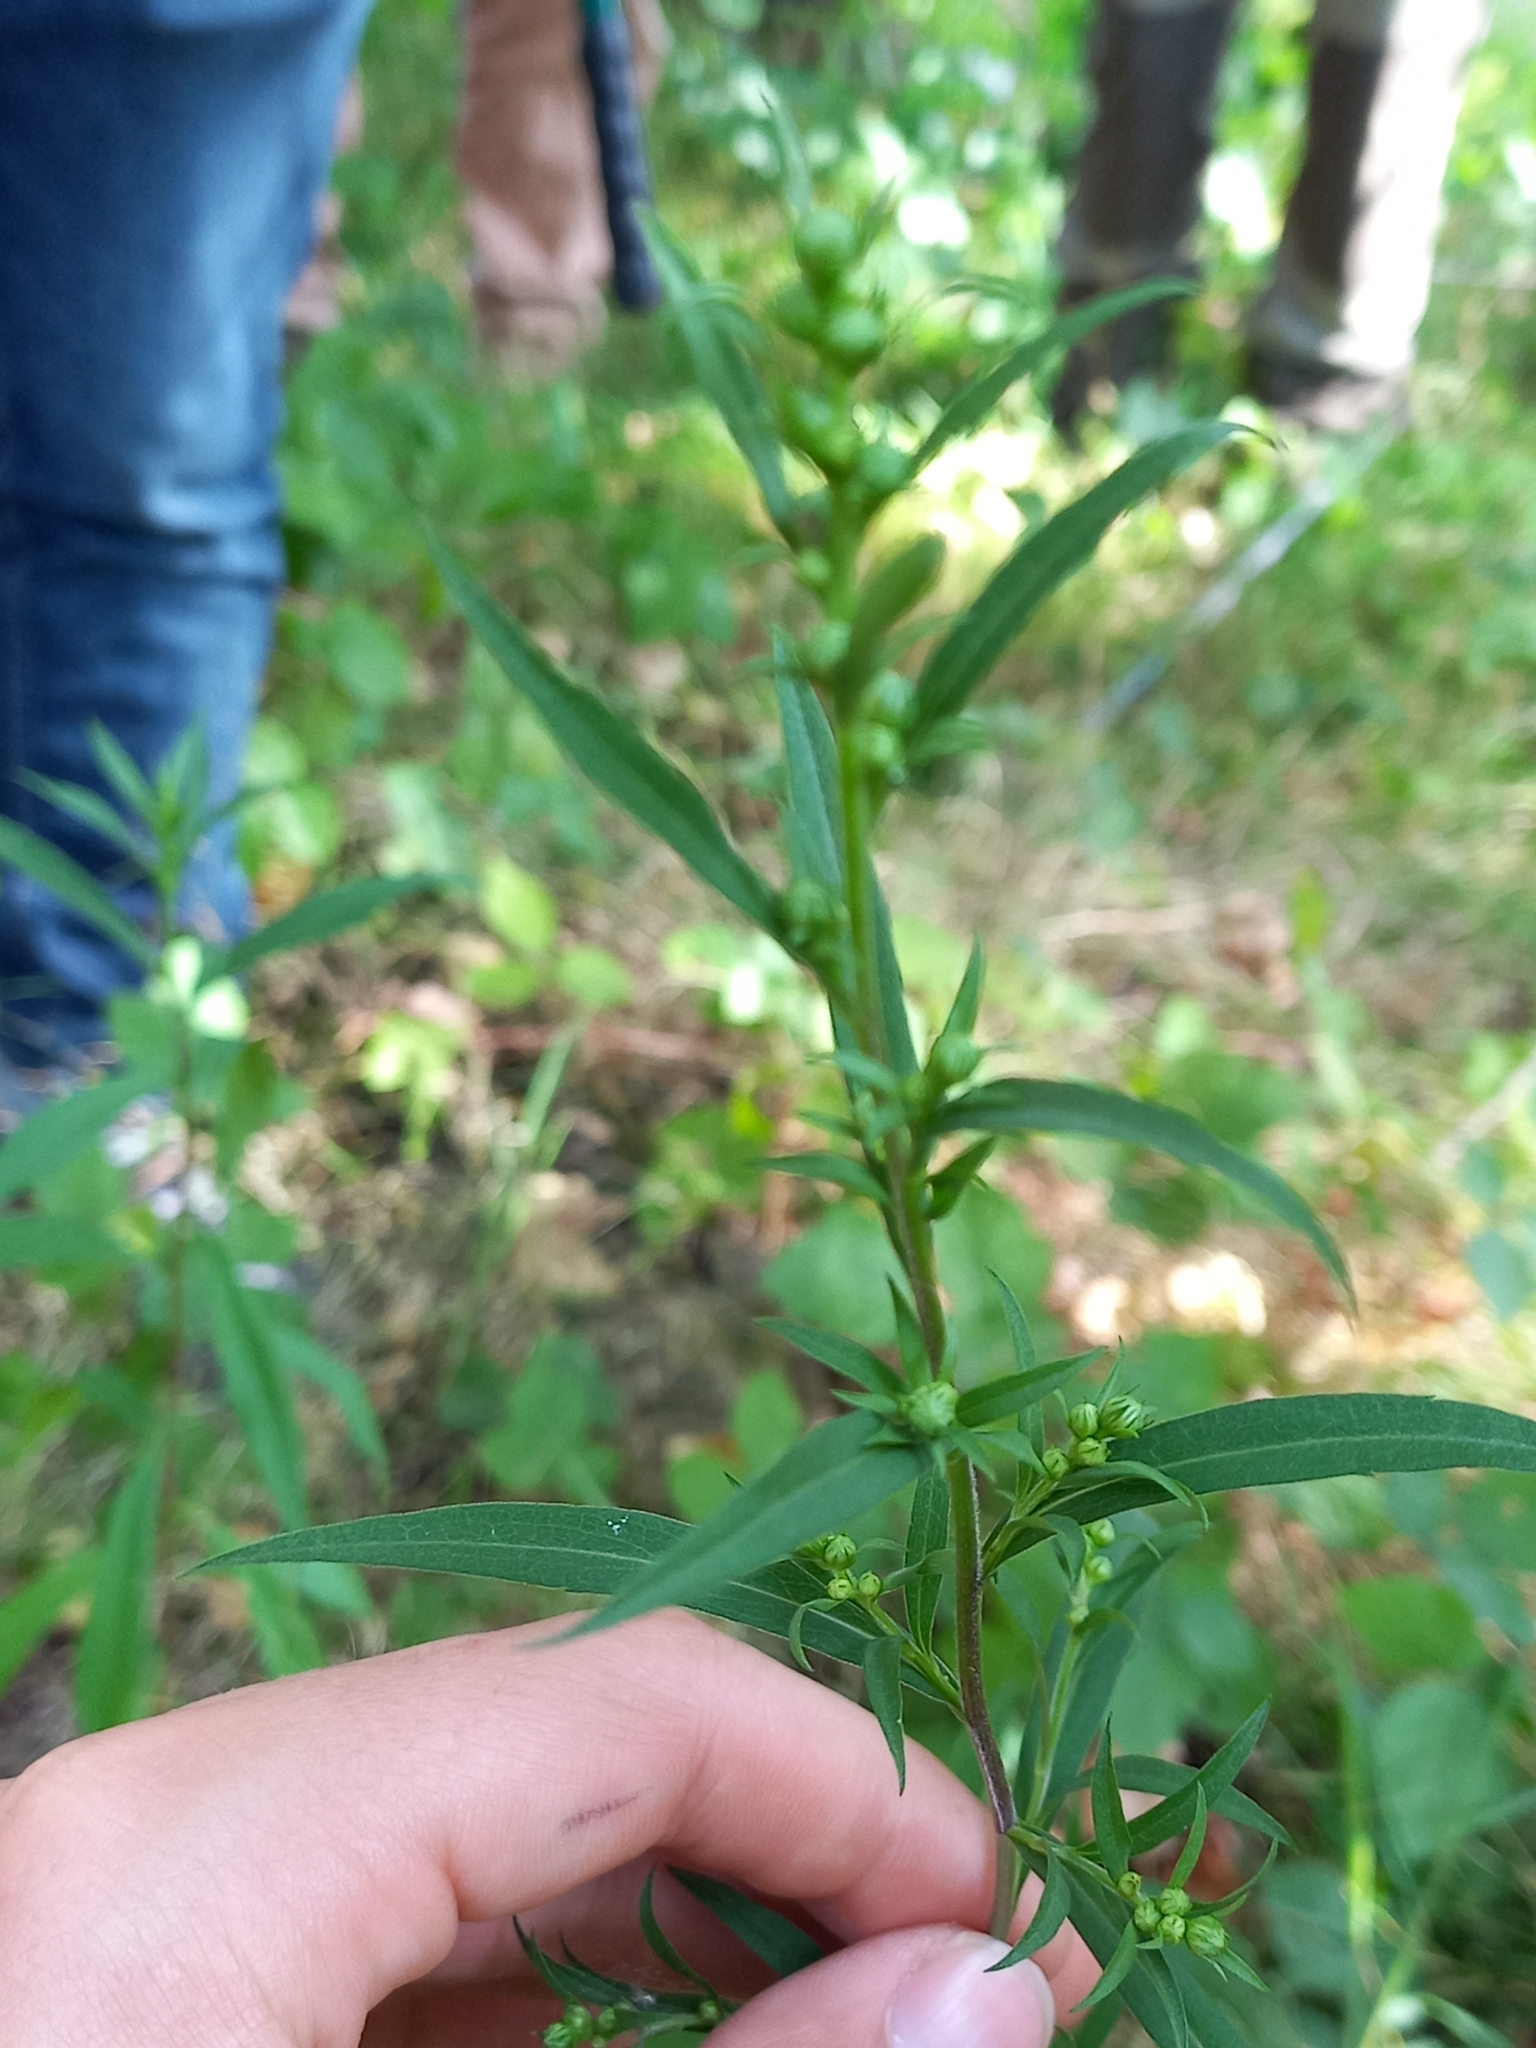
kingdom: Plantae
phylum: Tracheophyta
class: Magnoliopsida
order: Asterales
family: Asteraceae
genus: Symphyotrichum
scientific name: Symphyotrichum lanceolatum
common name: Panicled aster
